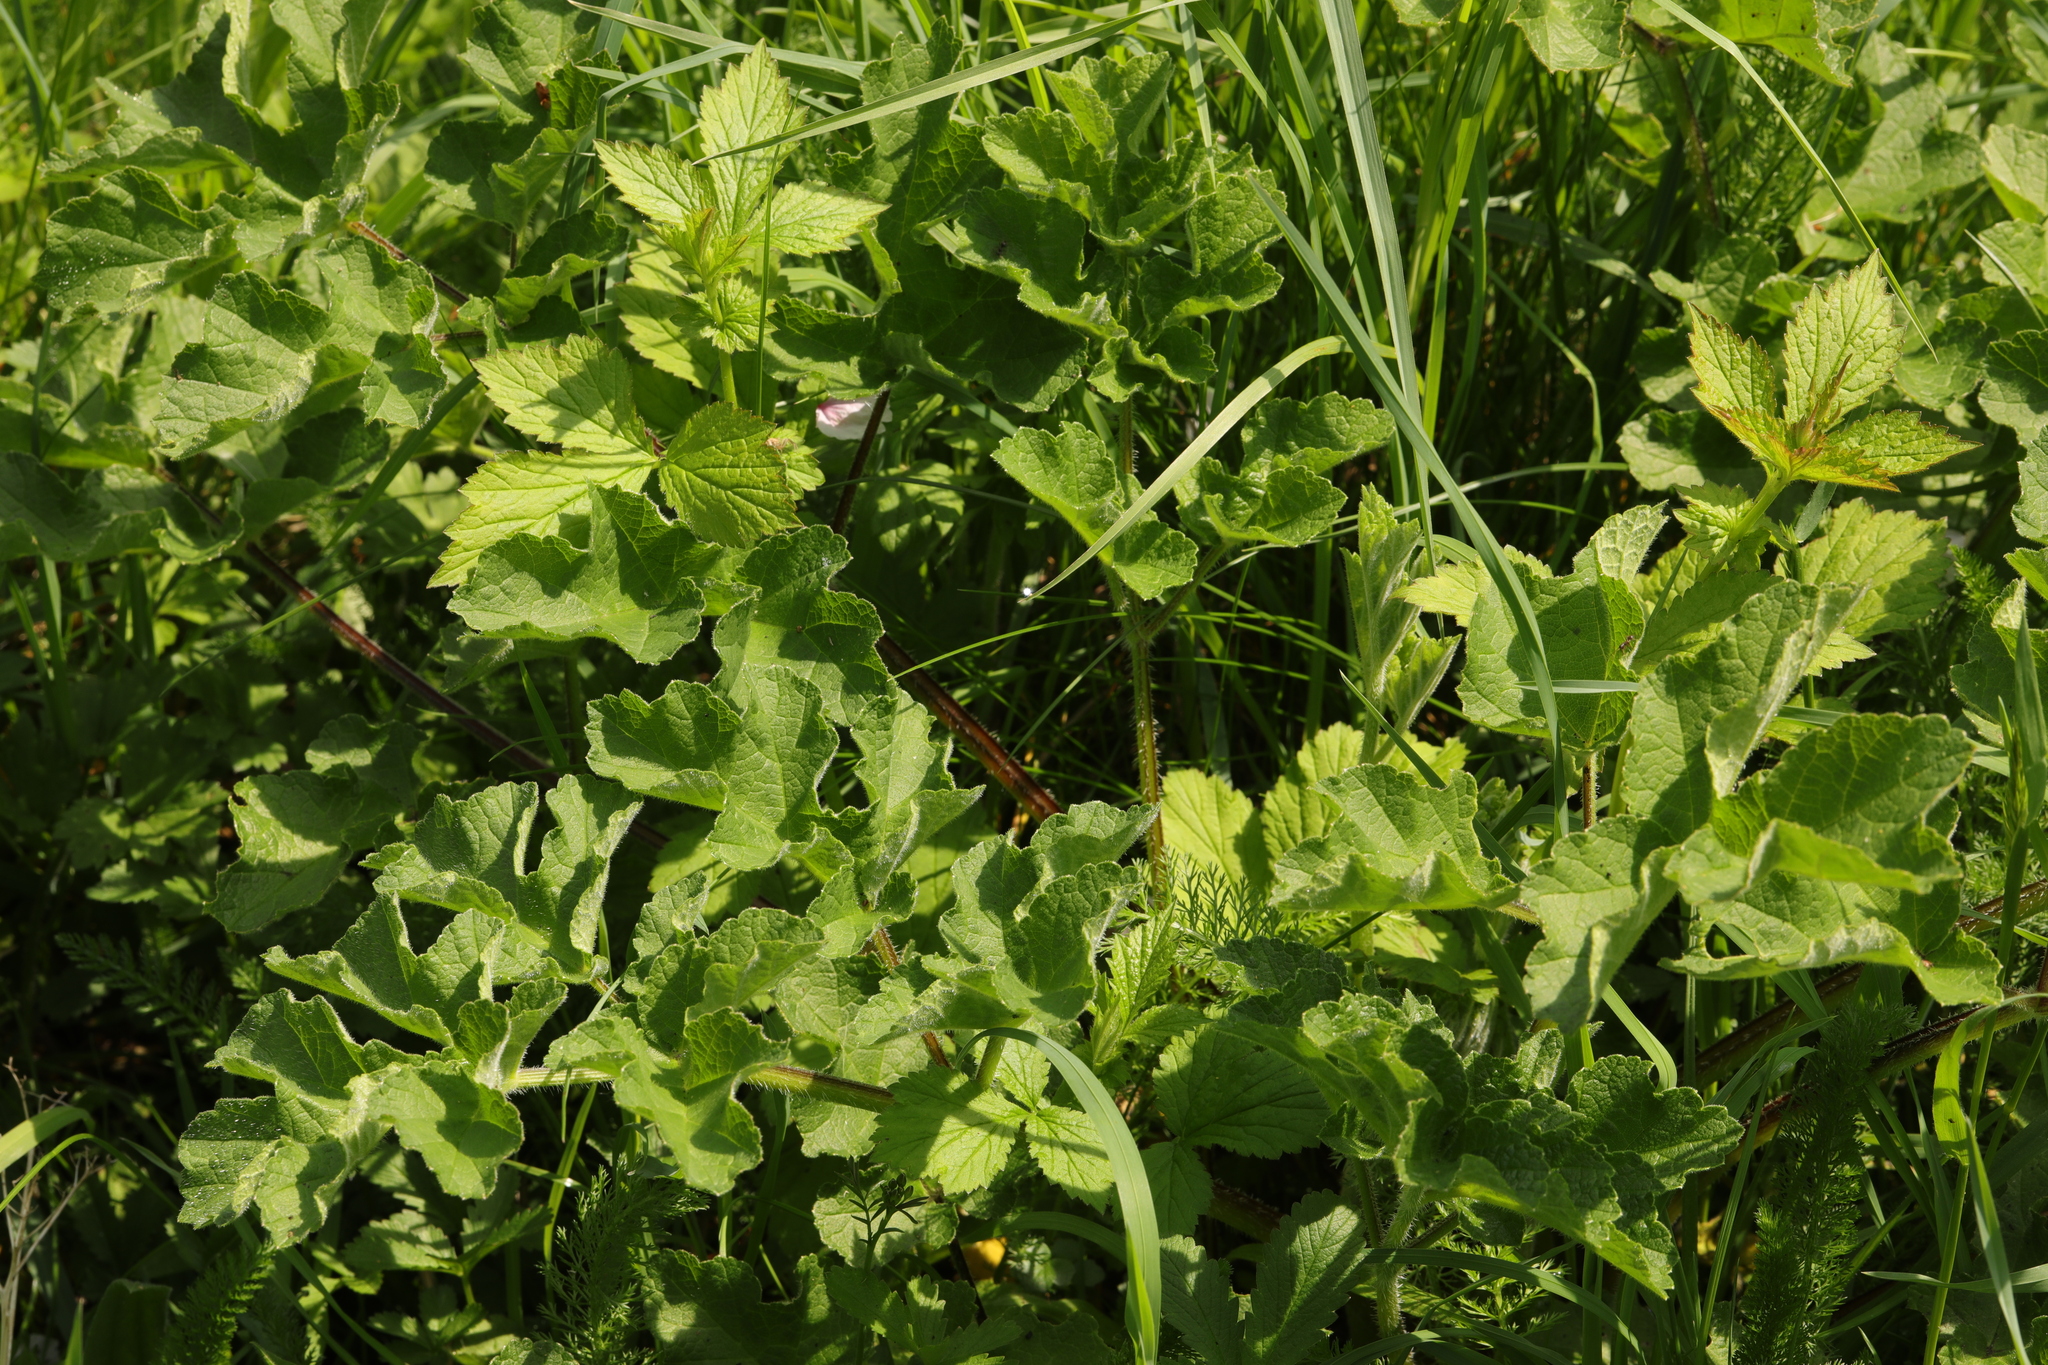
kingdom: Plantae
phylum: Tracheophyta
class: Magnoliopsida
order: Apiales
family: Apiaceae
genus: Heracleum
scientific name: Heracleum sphondylium
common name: Hogweed
